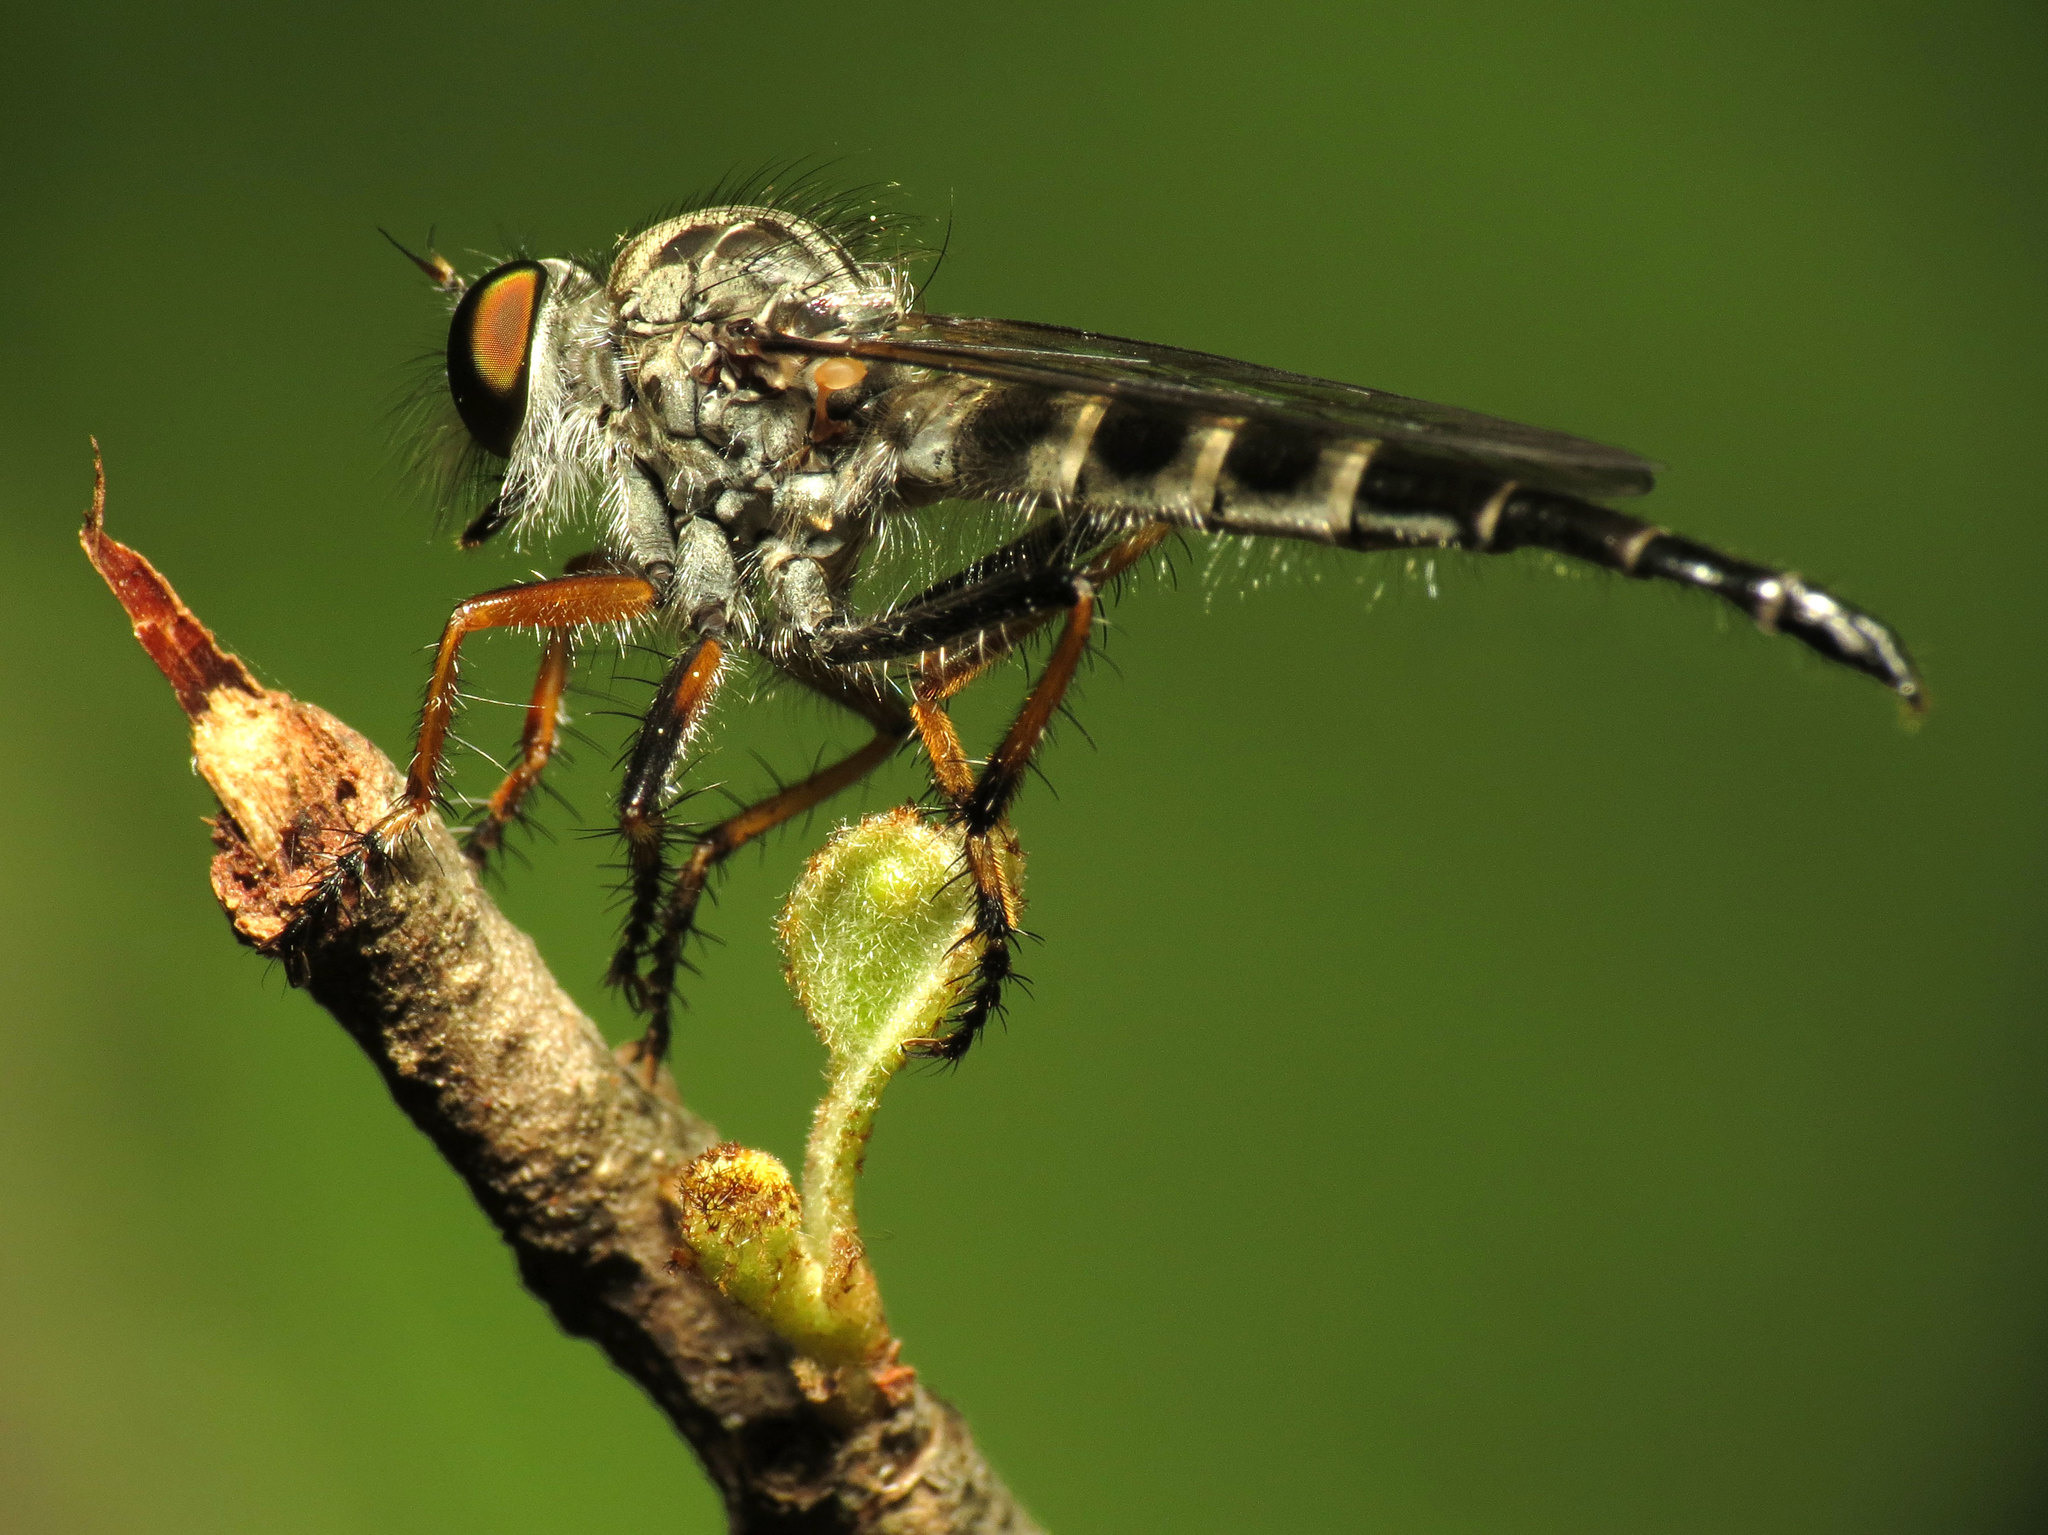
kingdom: Animalia
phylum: Arthropoda
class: Insecta
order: Diptera
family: Asilidae
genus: Asilus
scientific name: Asilus flavofemoratus
